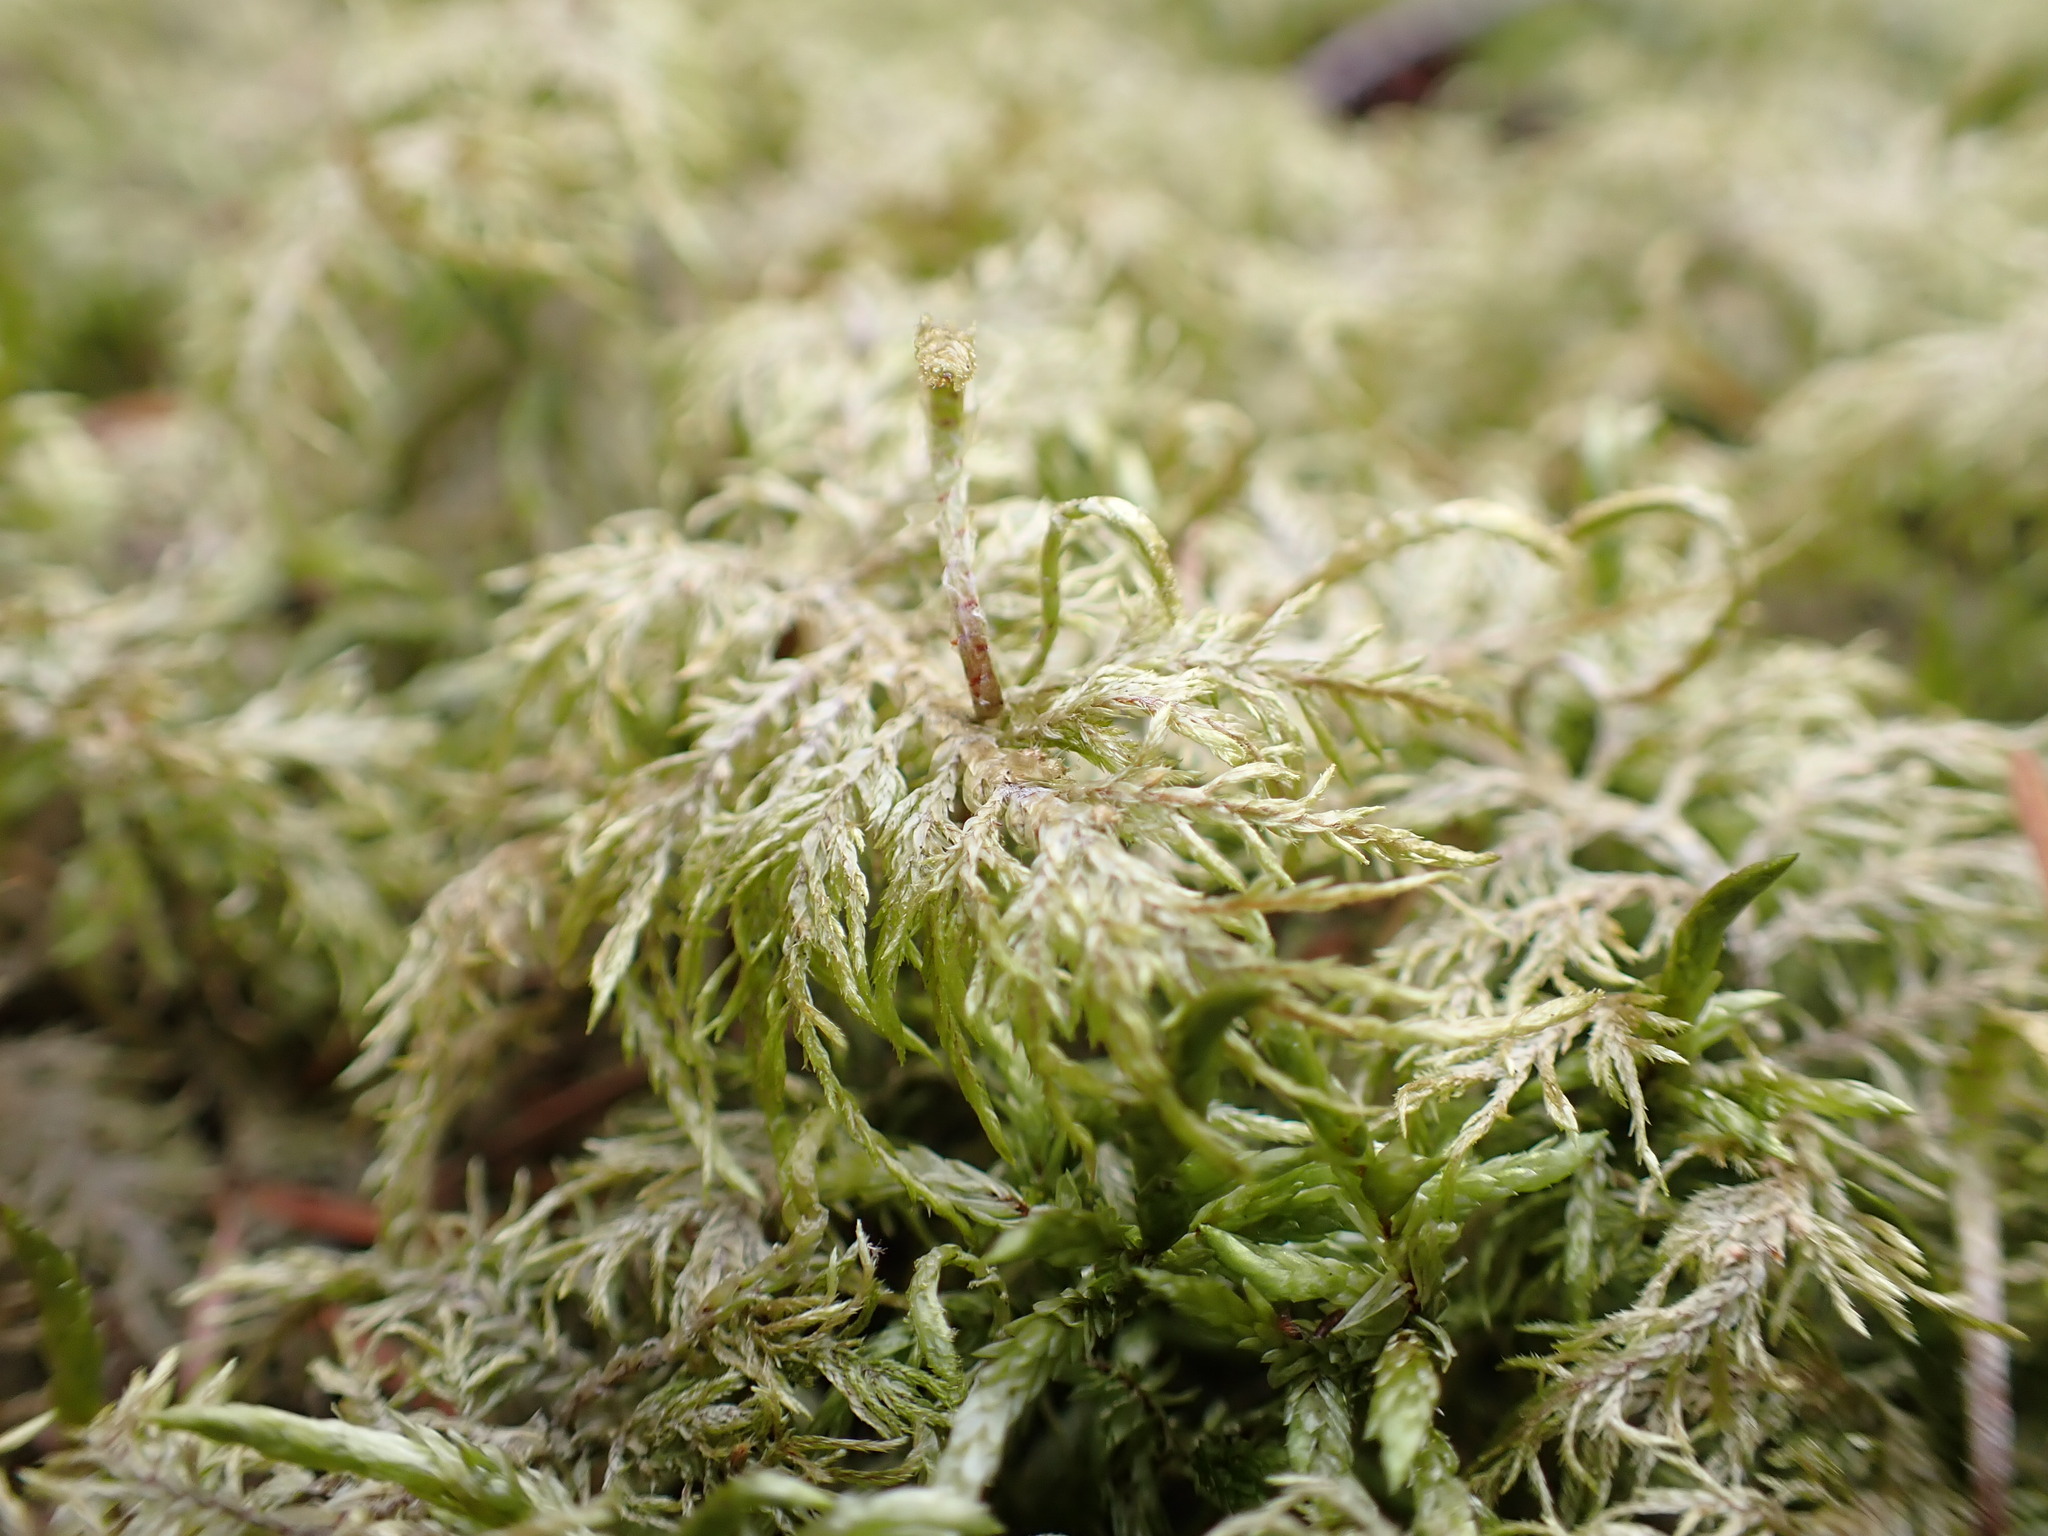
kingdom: Plantae
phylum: Bryophyta
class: Bryopsida
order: Hypnales
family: Hylocomiaceae
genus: Hylocomium
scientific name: Hylocomium splendens
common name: Stairstep moss
